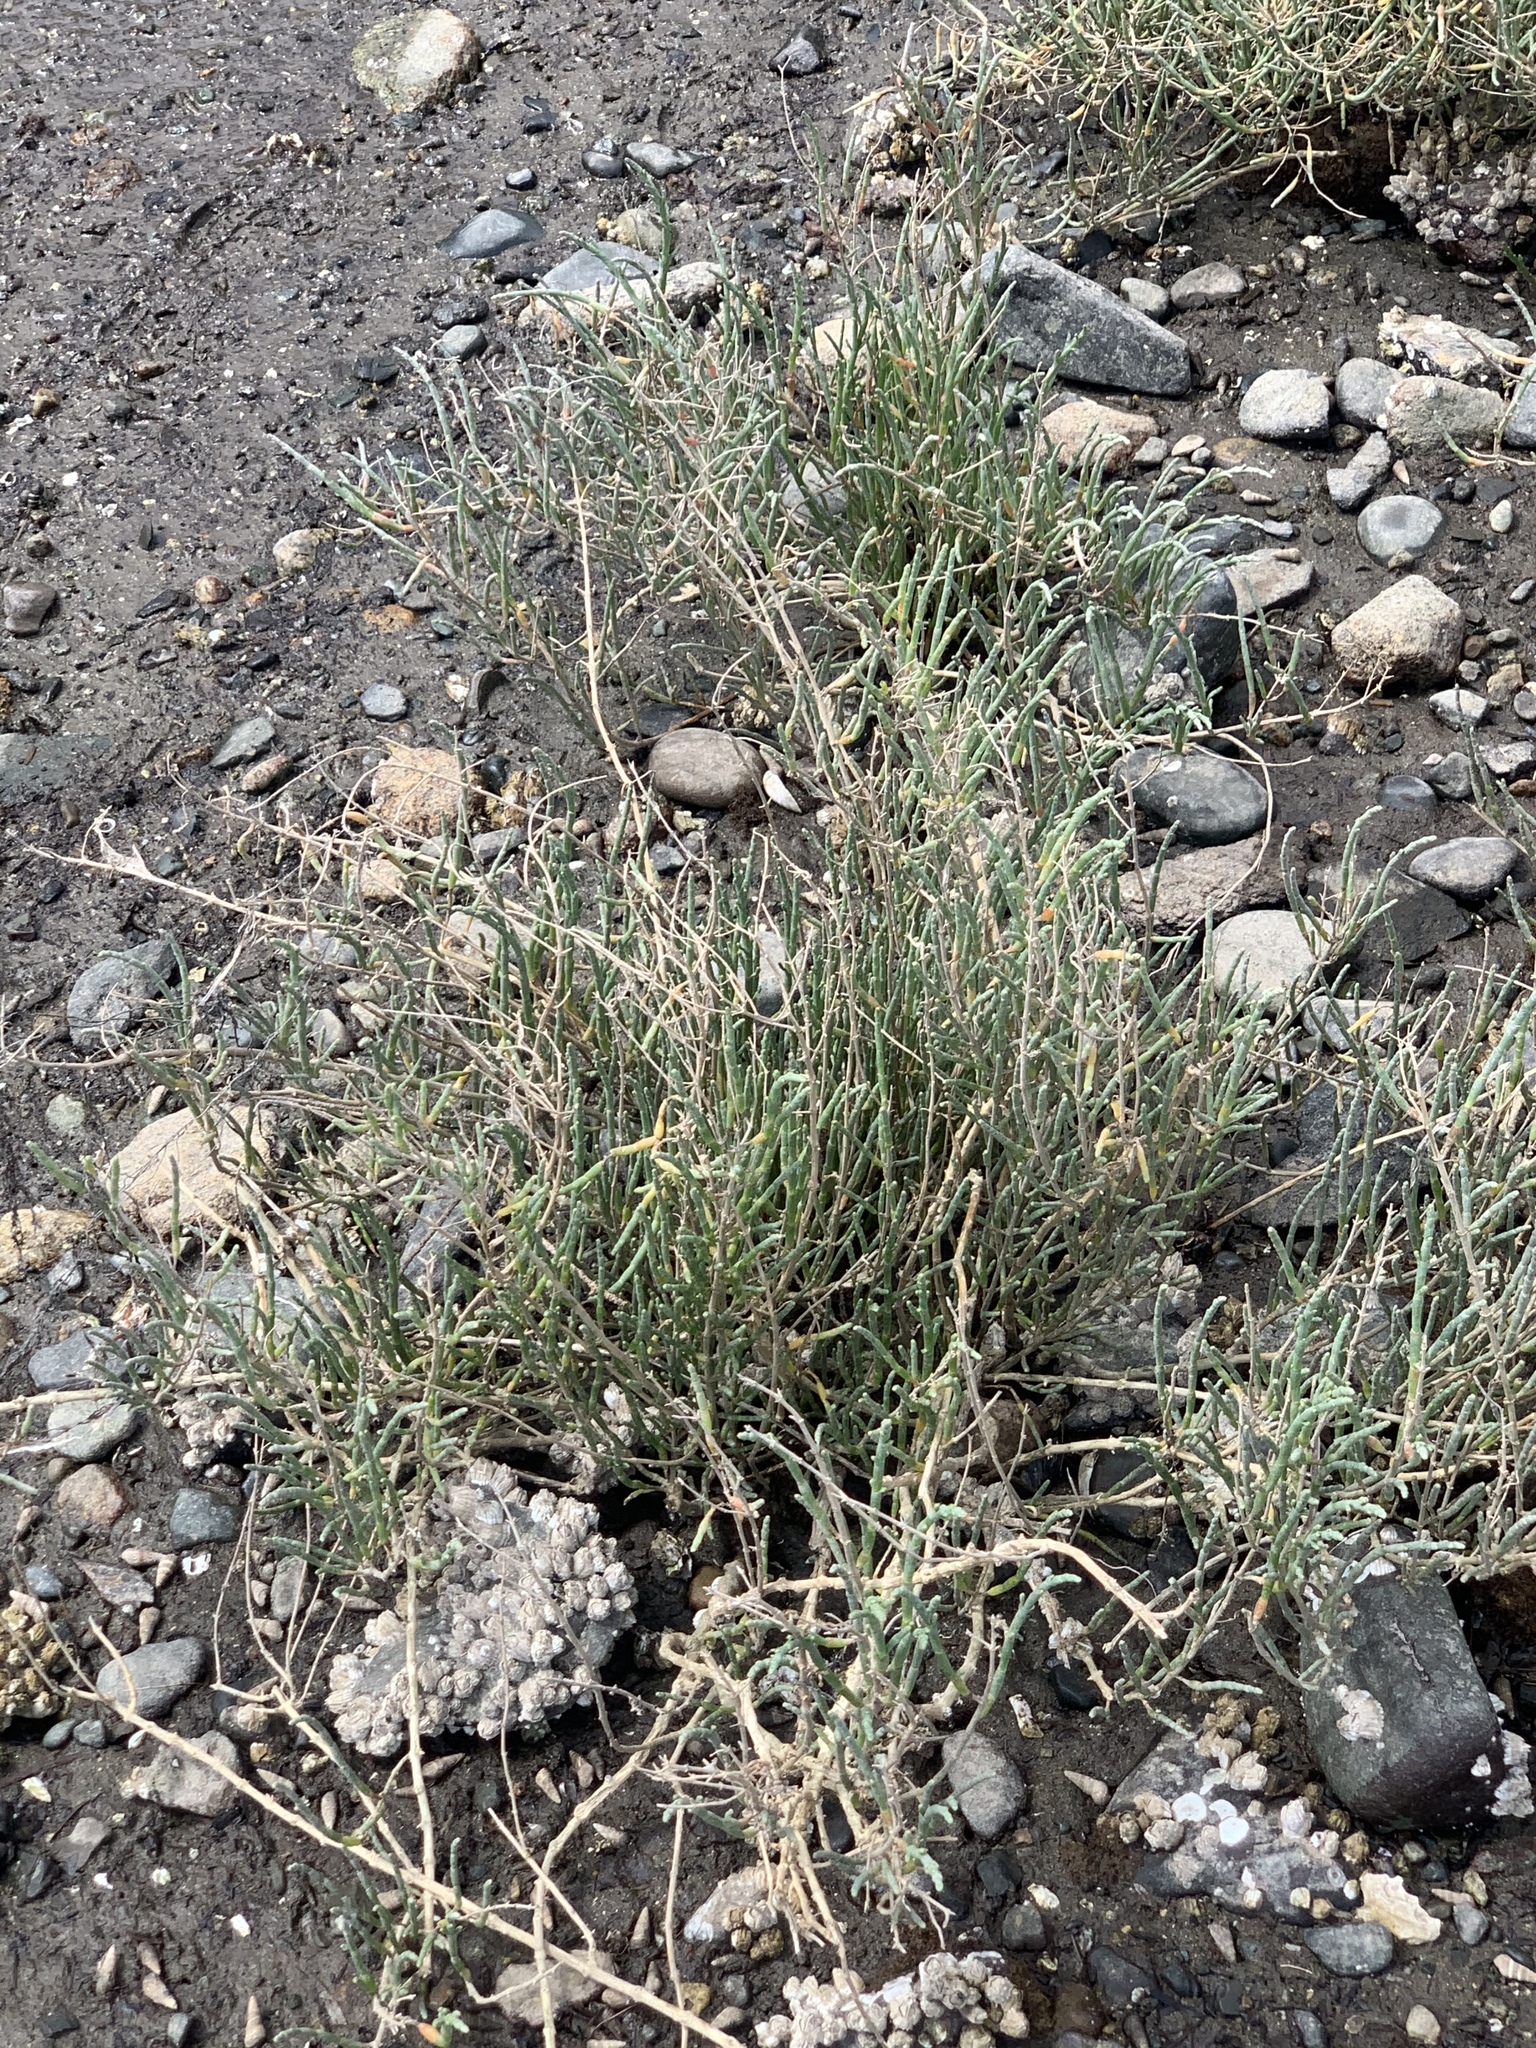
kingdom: Plantae
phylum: Tracheophyta
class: Magnoliopsida
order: Caryophyllales
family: Amaranthaceae
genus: Salicornia
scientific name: Salicornia pacifica
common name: Pacific glasswort
